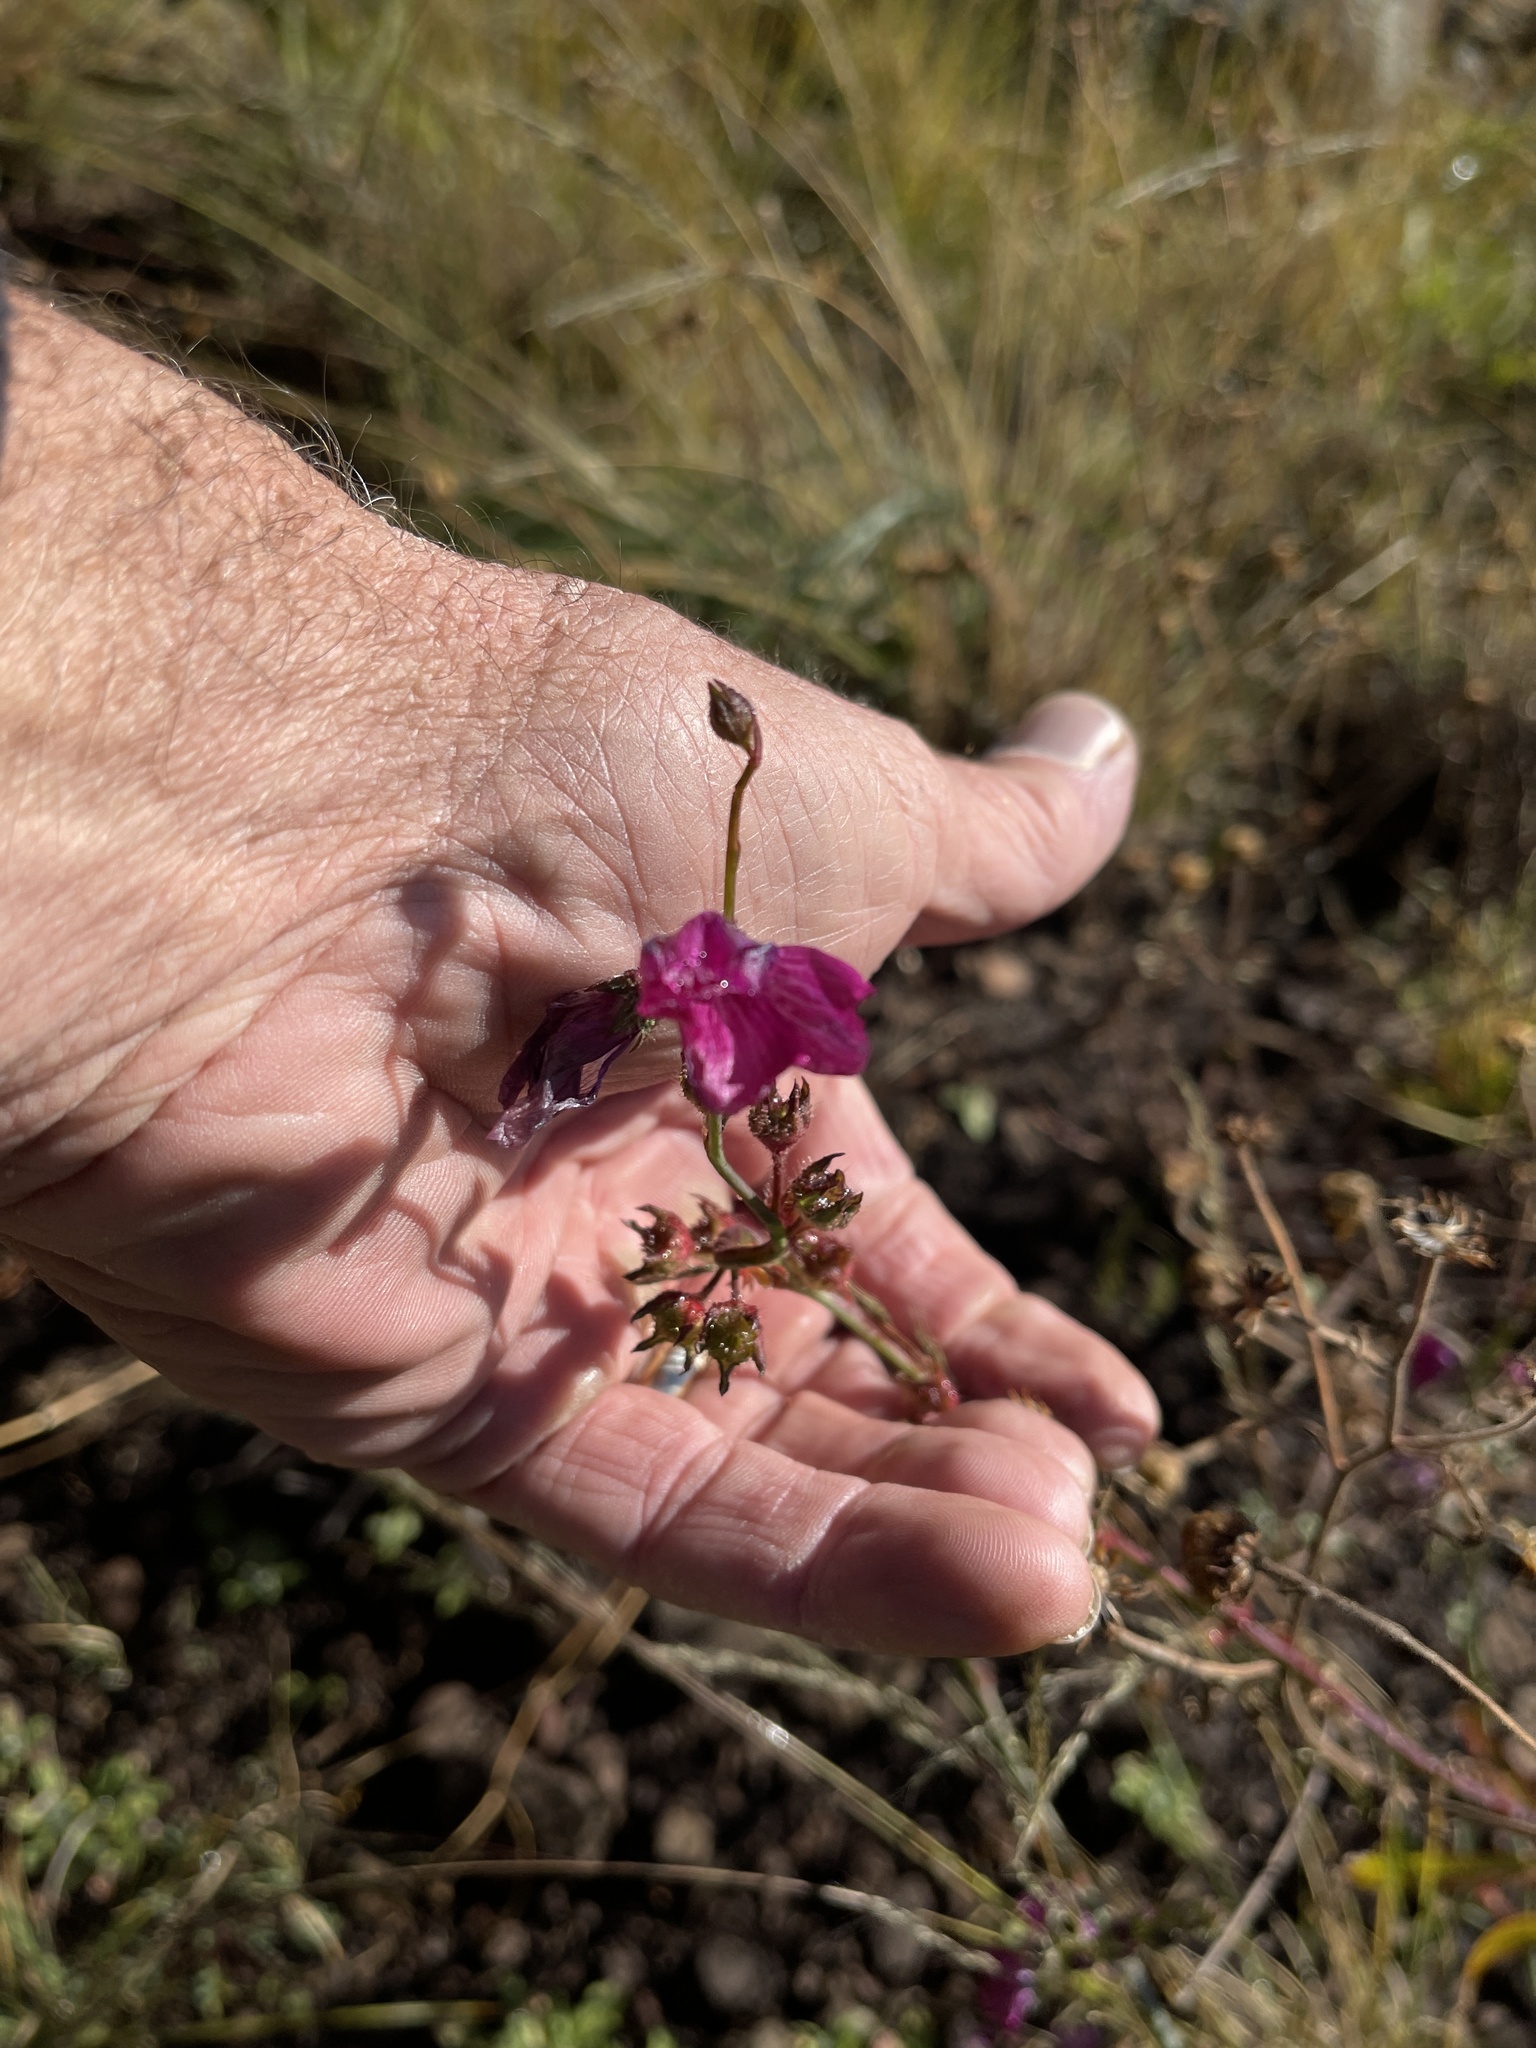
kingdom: Plantae
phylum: Tracheophyta
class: Magnoliopsida
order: Malvales
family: Malvaceae
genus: Sidalcea
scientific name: Sidalcea neomexicana
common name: New mexico checker
